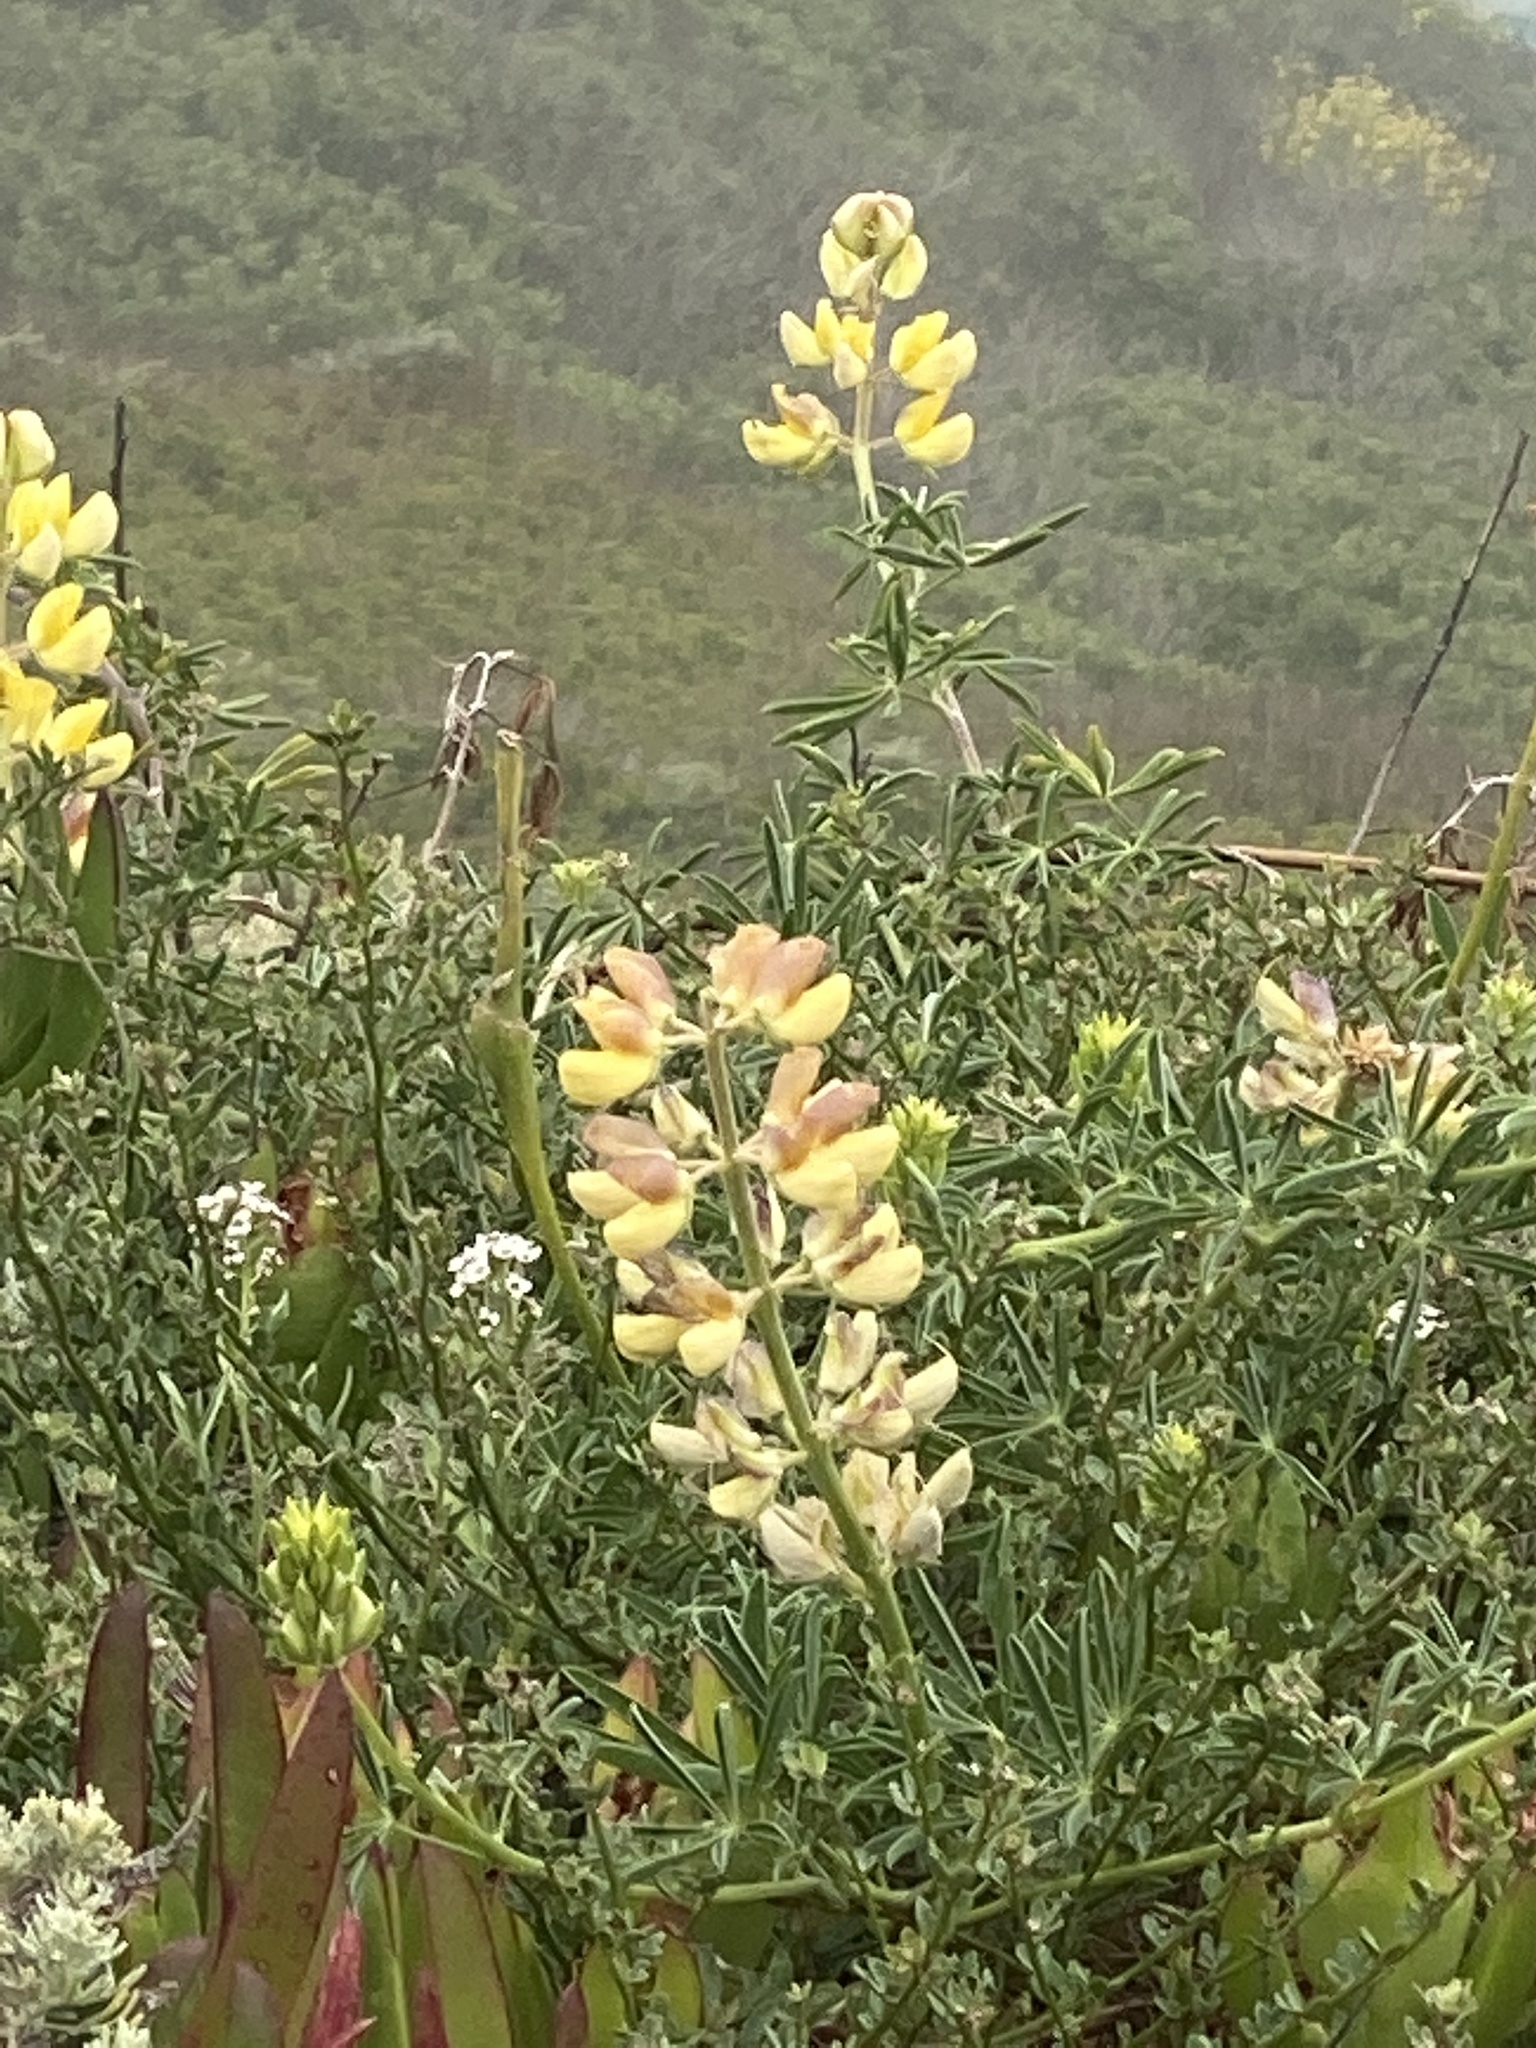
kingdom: Plantae
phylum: Tracheophyta
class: Magnoliopsida
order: Fabales
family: Fabaceae
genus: Lupinus
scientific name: Lupinus arboreus
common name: Yellow bush lupine
